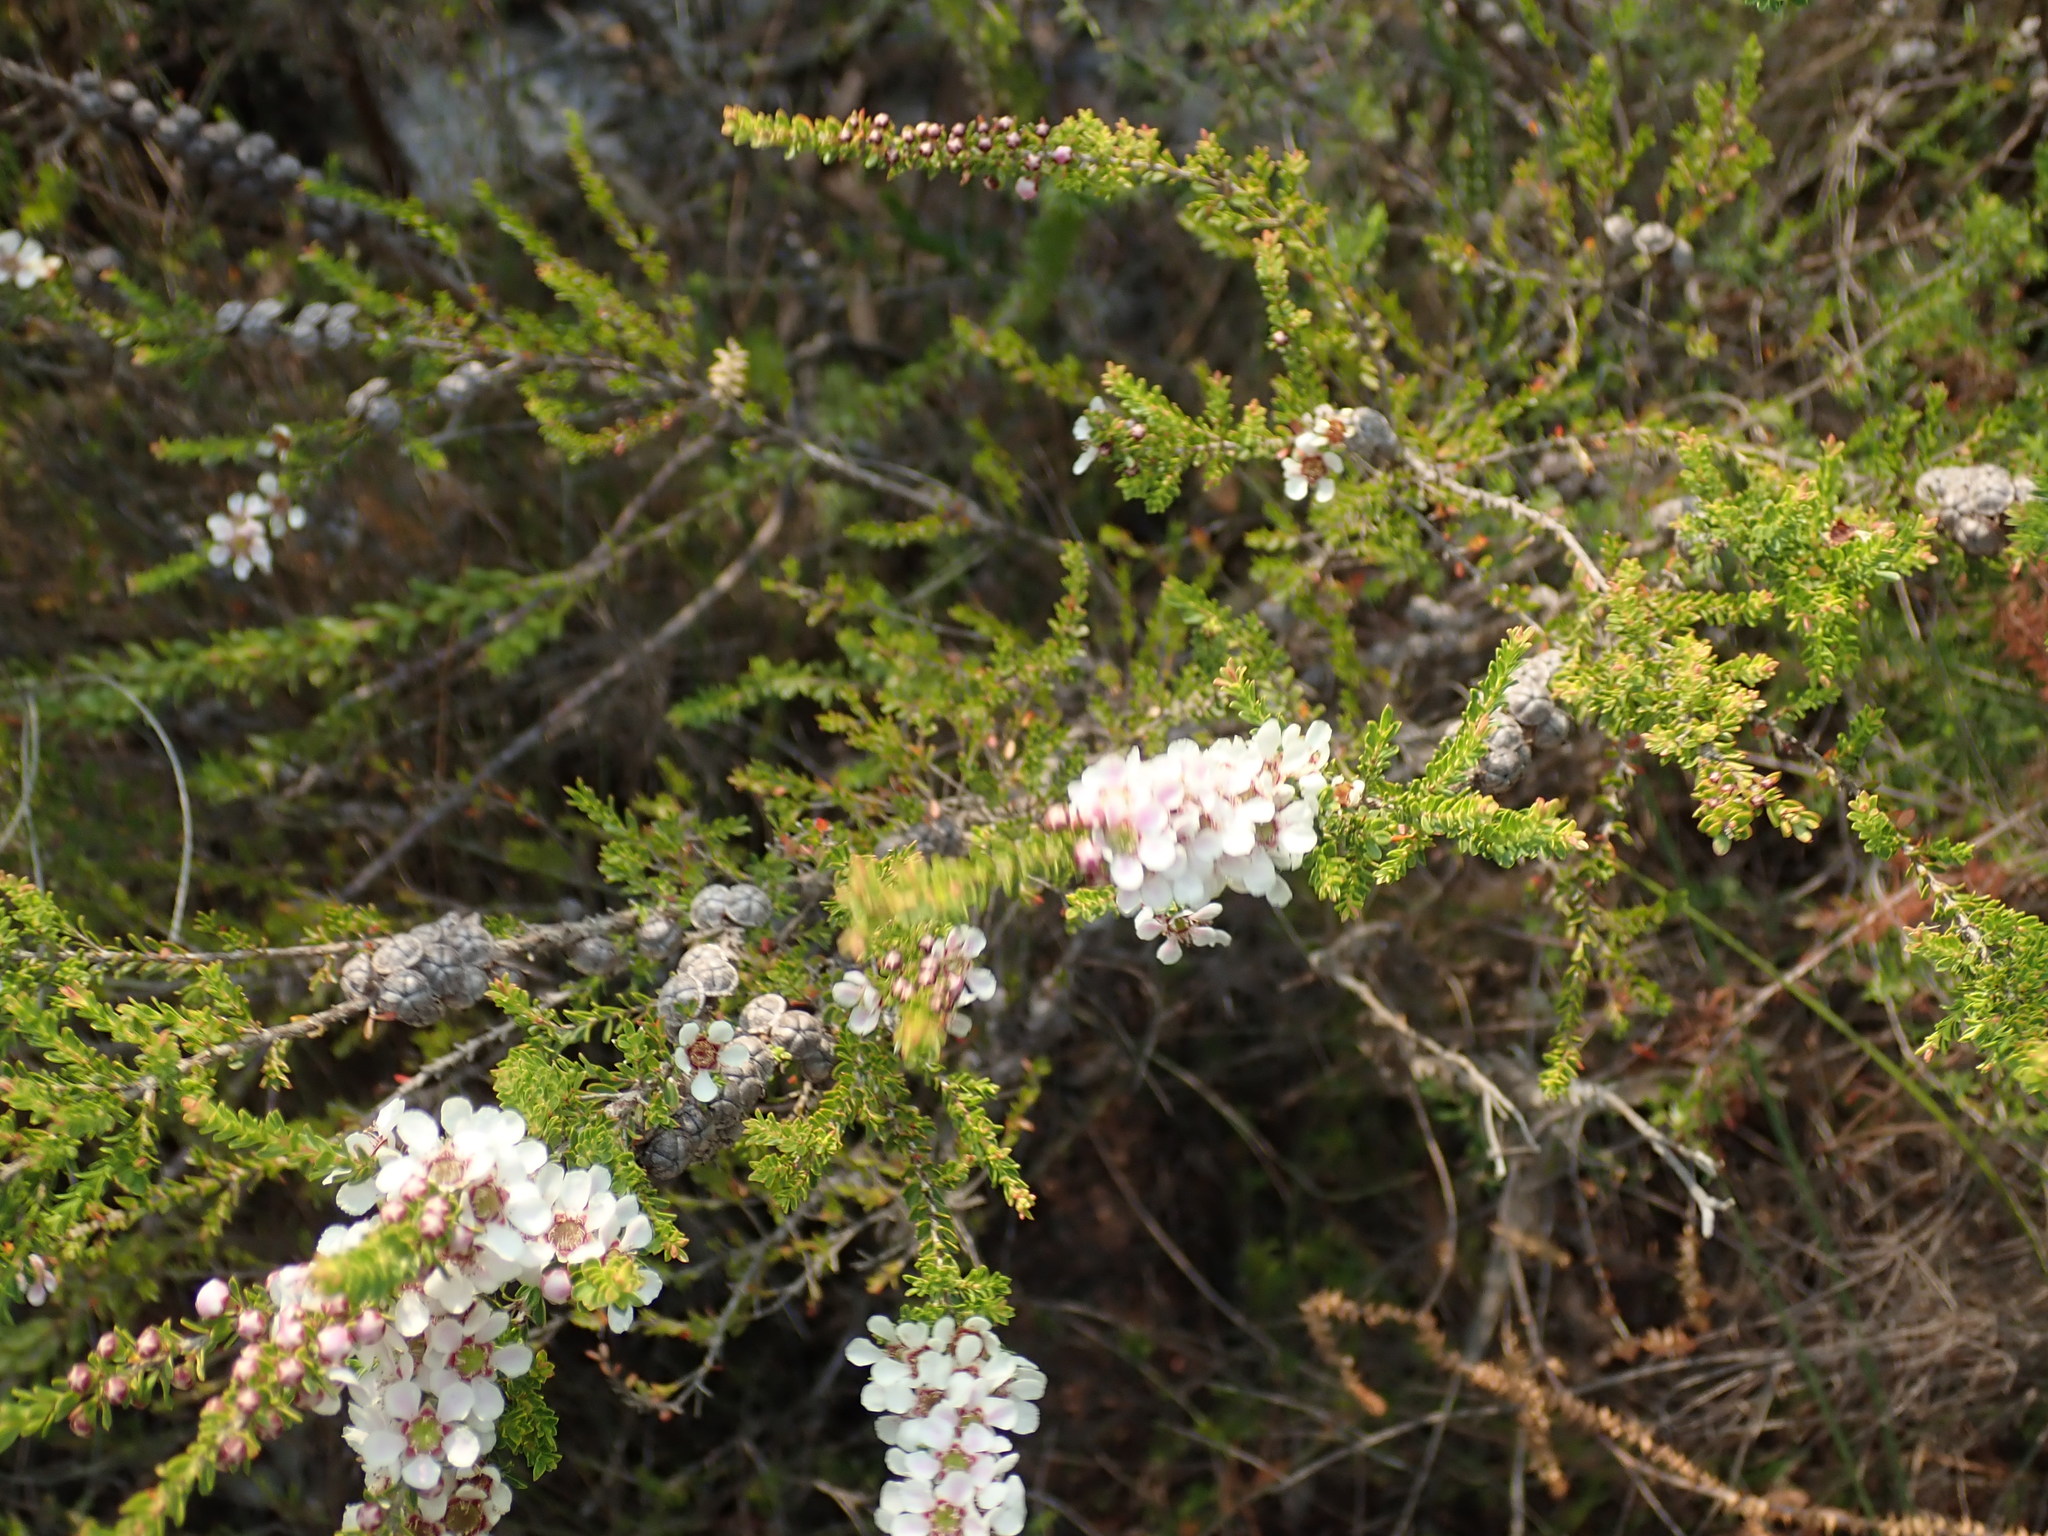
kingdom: Plantae
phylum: Tracheophyta
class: Magnoliopsida
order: Myrtales
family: Myrtaceae
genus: Leptospermum
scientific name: Leptospermum liversidgei
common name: Citron-scent teatree
